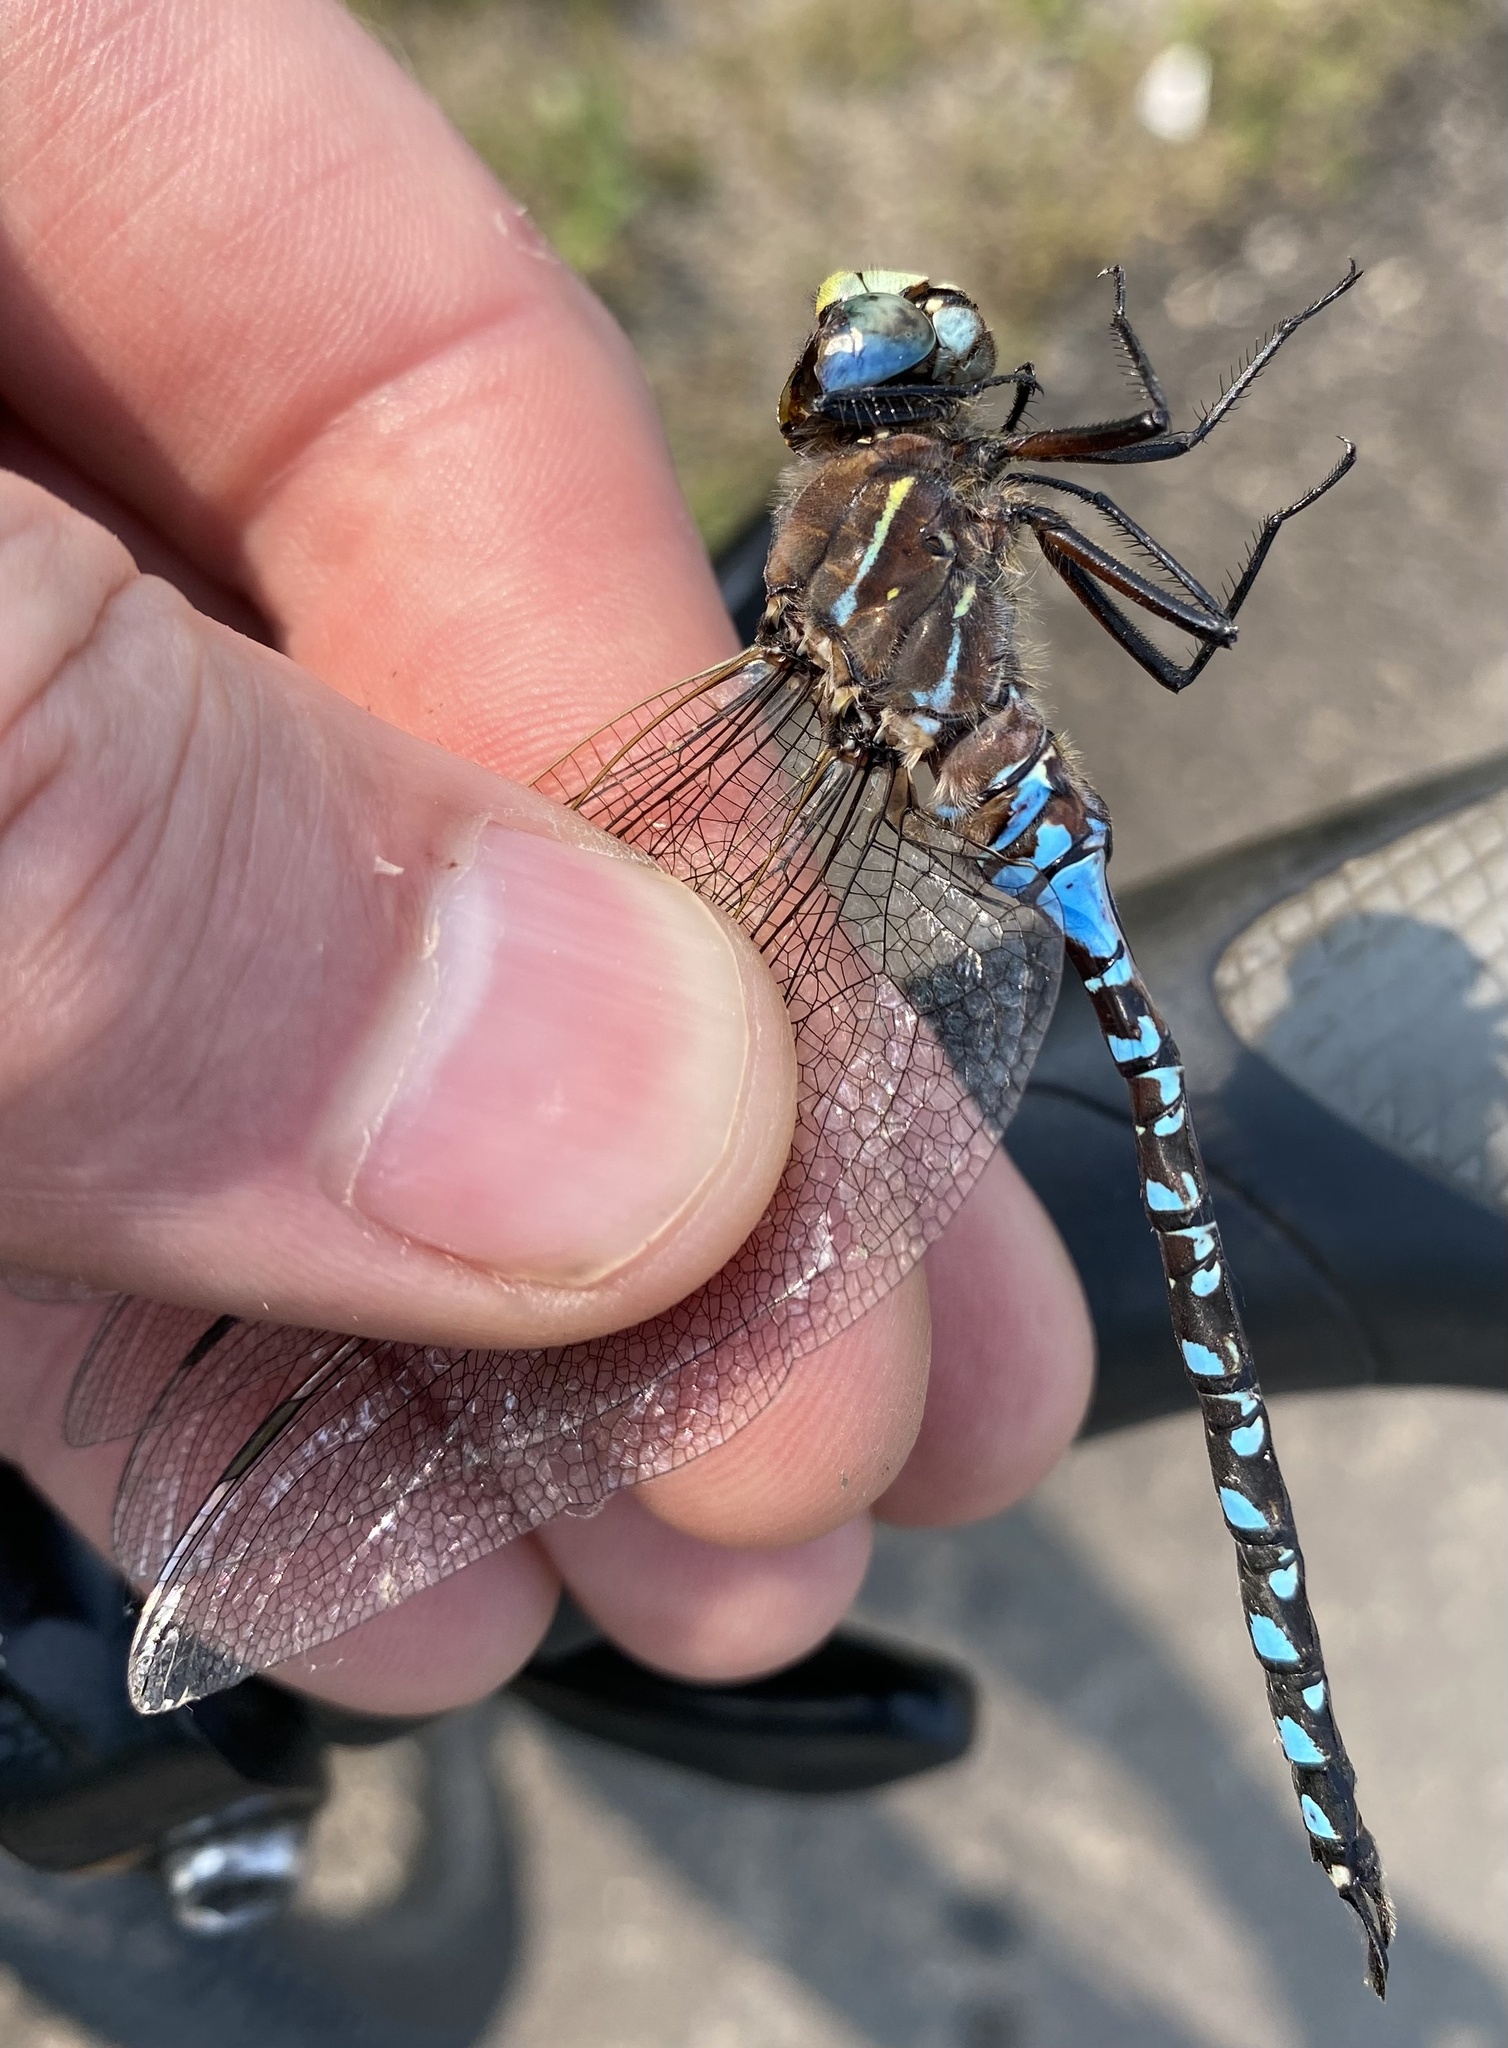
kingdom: Animalia
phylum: Arthropoda
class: Insecta
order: Odonata
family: Aeshnidae
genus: Aeshna
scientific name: Aeshna interrupta
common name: Variable darner
